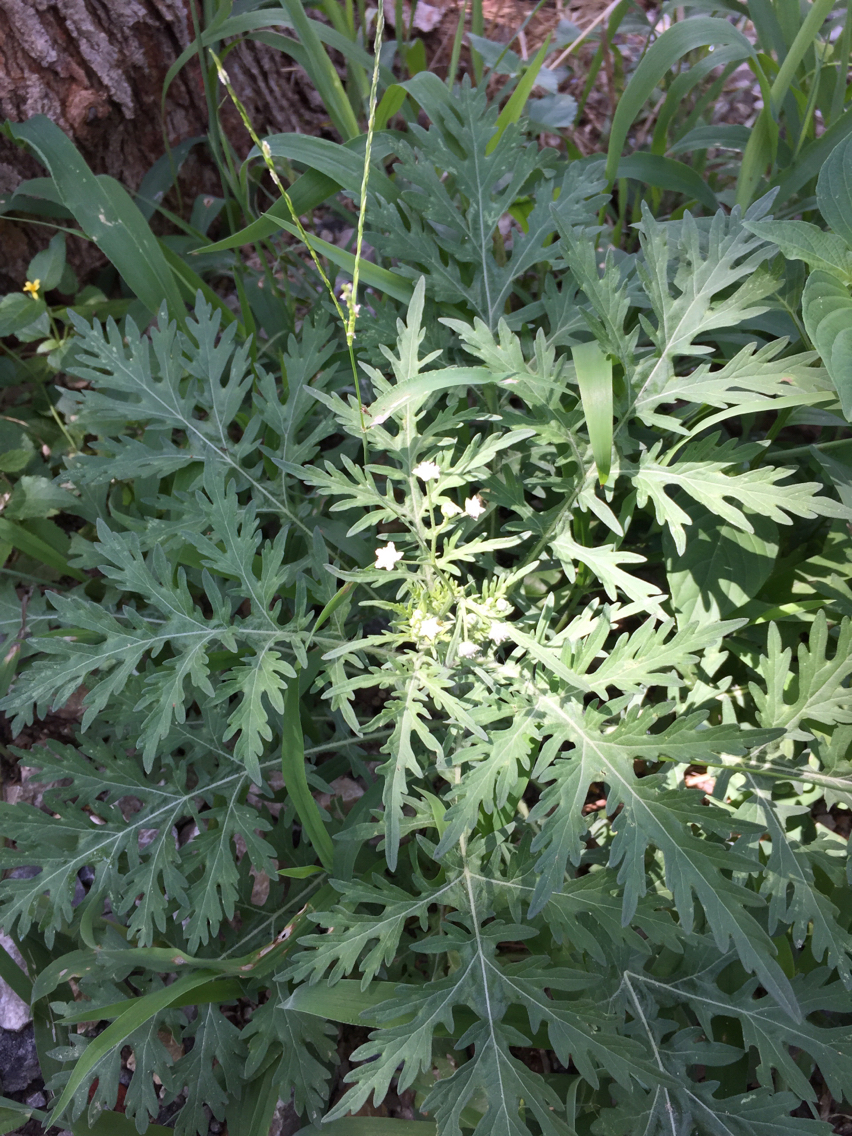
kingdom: Plantae
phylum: Tracheophyta
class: Magnoliopsida
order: Asterales
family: Asteraceae
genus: Parthenium
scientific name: Parthenium hysterophorus
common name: Santa maria feverfew
